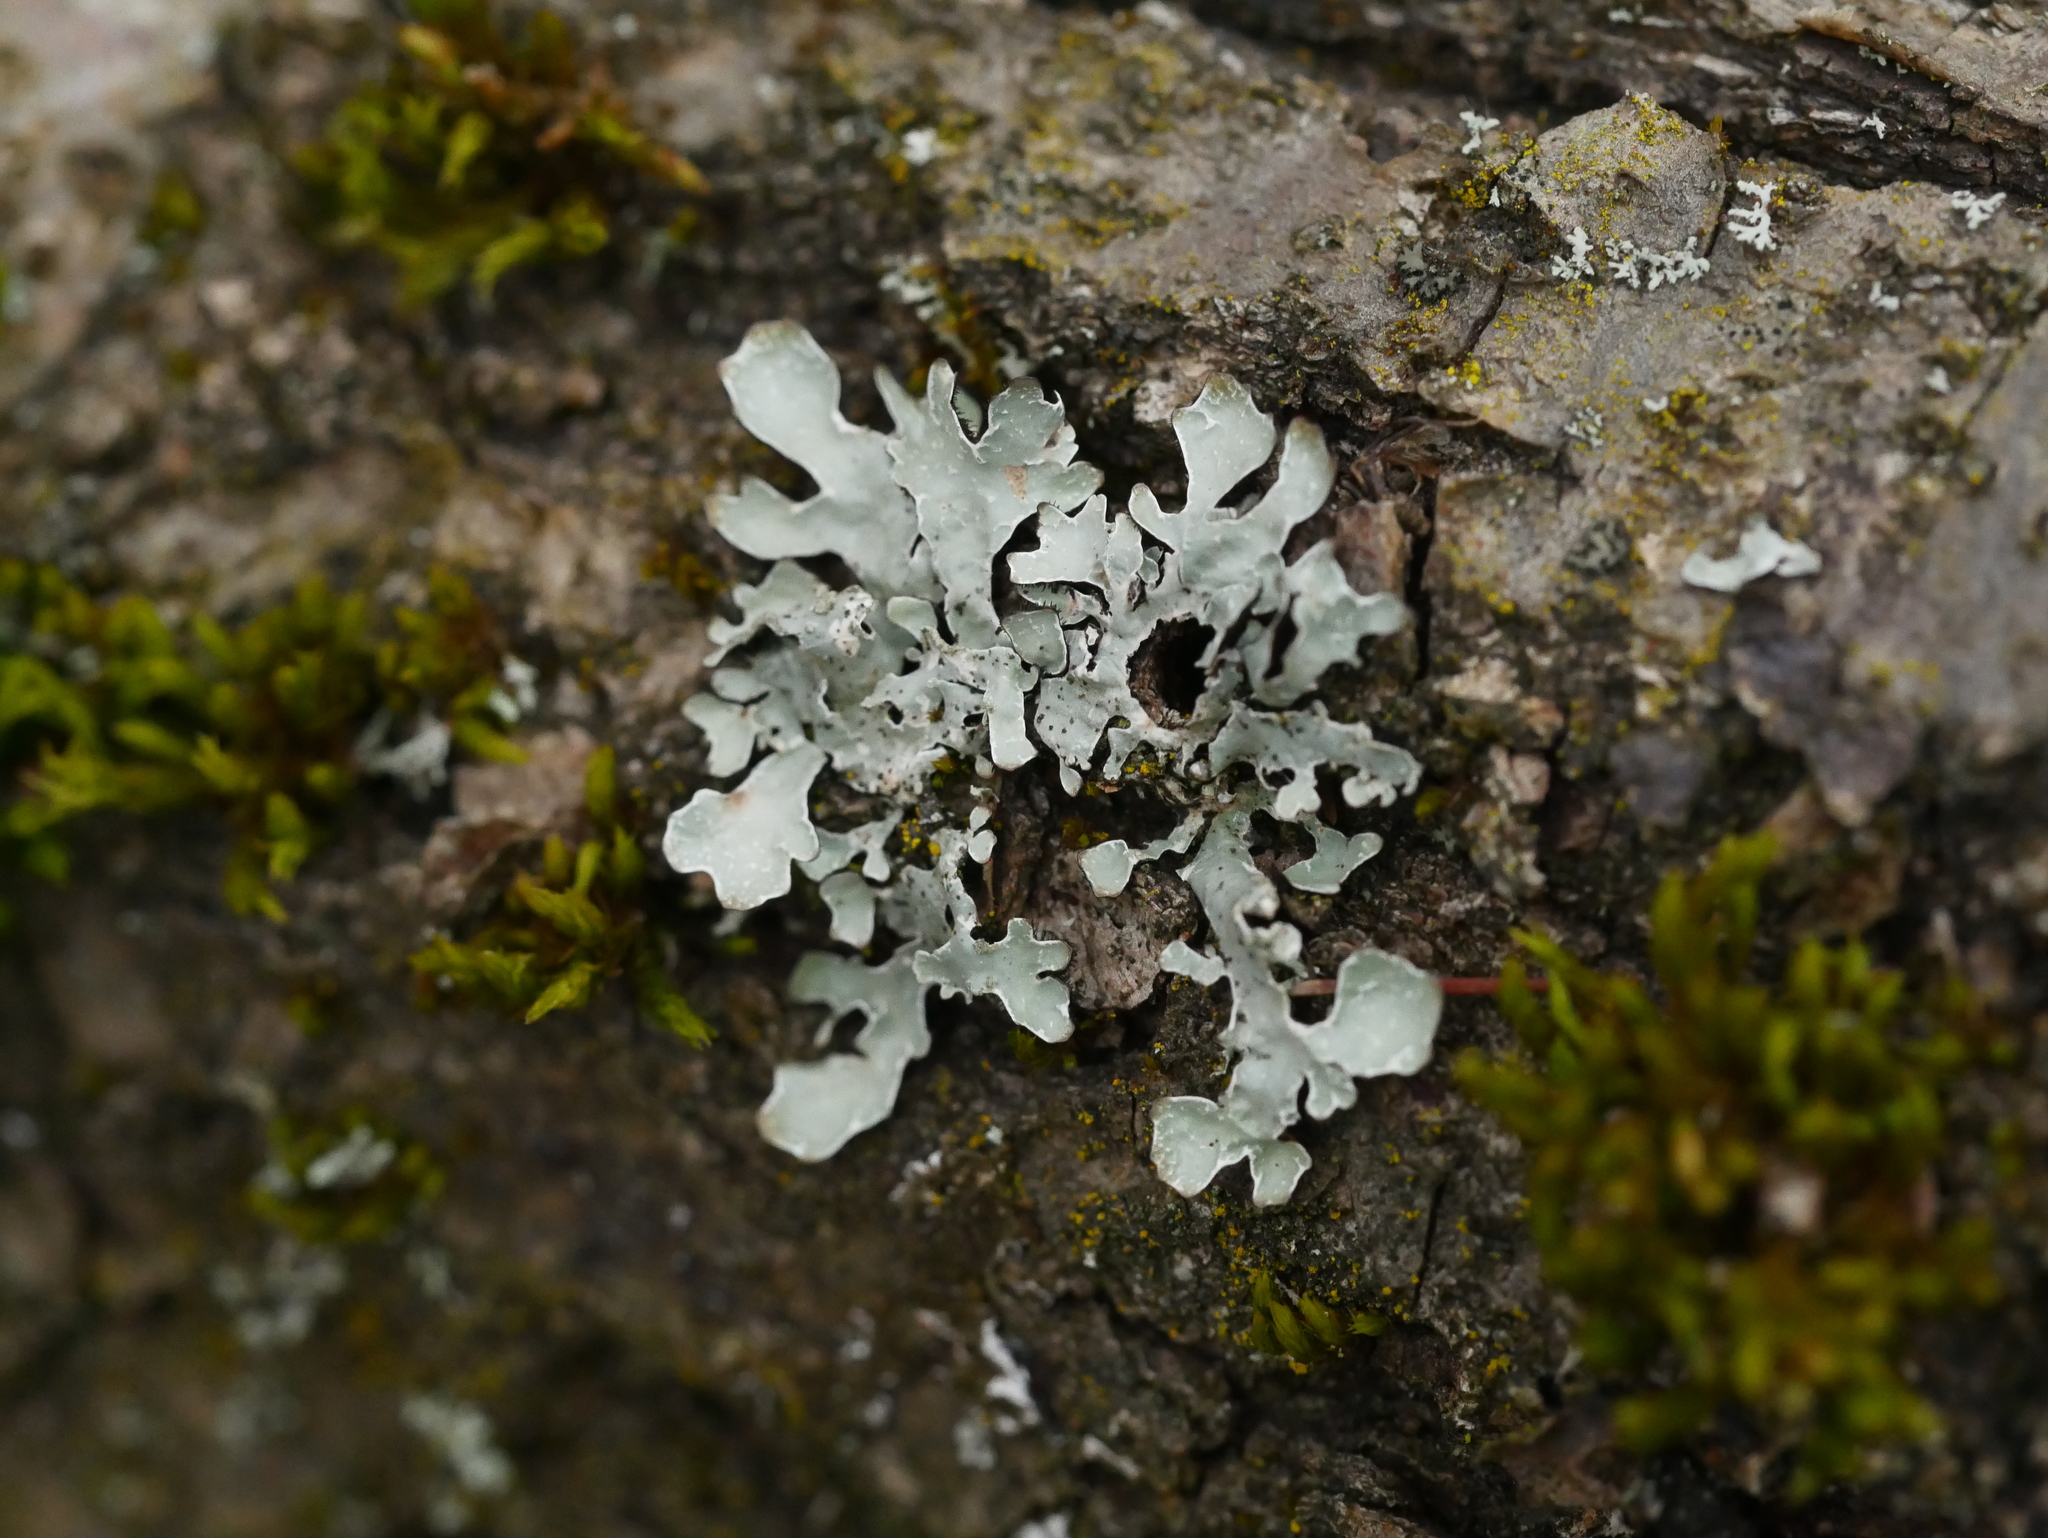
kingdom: Fungi
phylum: Ascomycota
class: Lecanoromycetes
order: Lecanorales
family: Parmeliaceae
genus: Parmelia
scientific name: Parmelia sulcata
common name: Netted shield lichen
